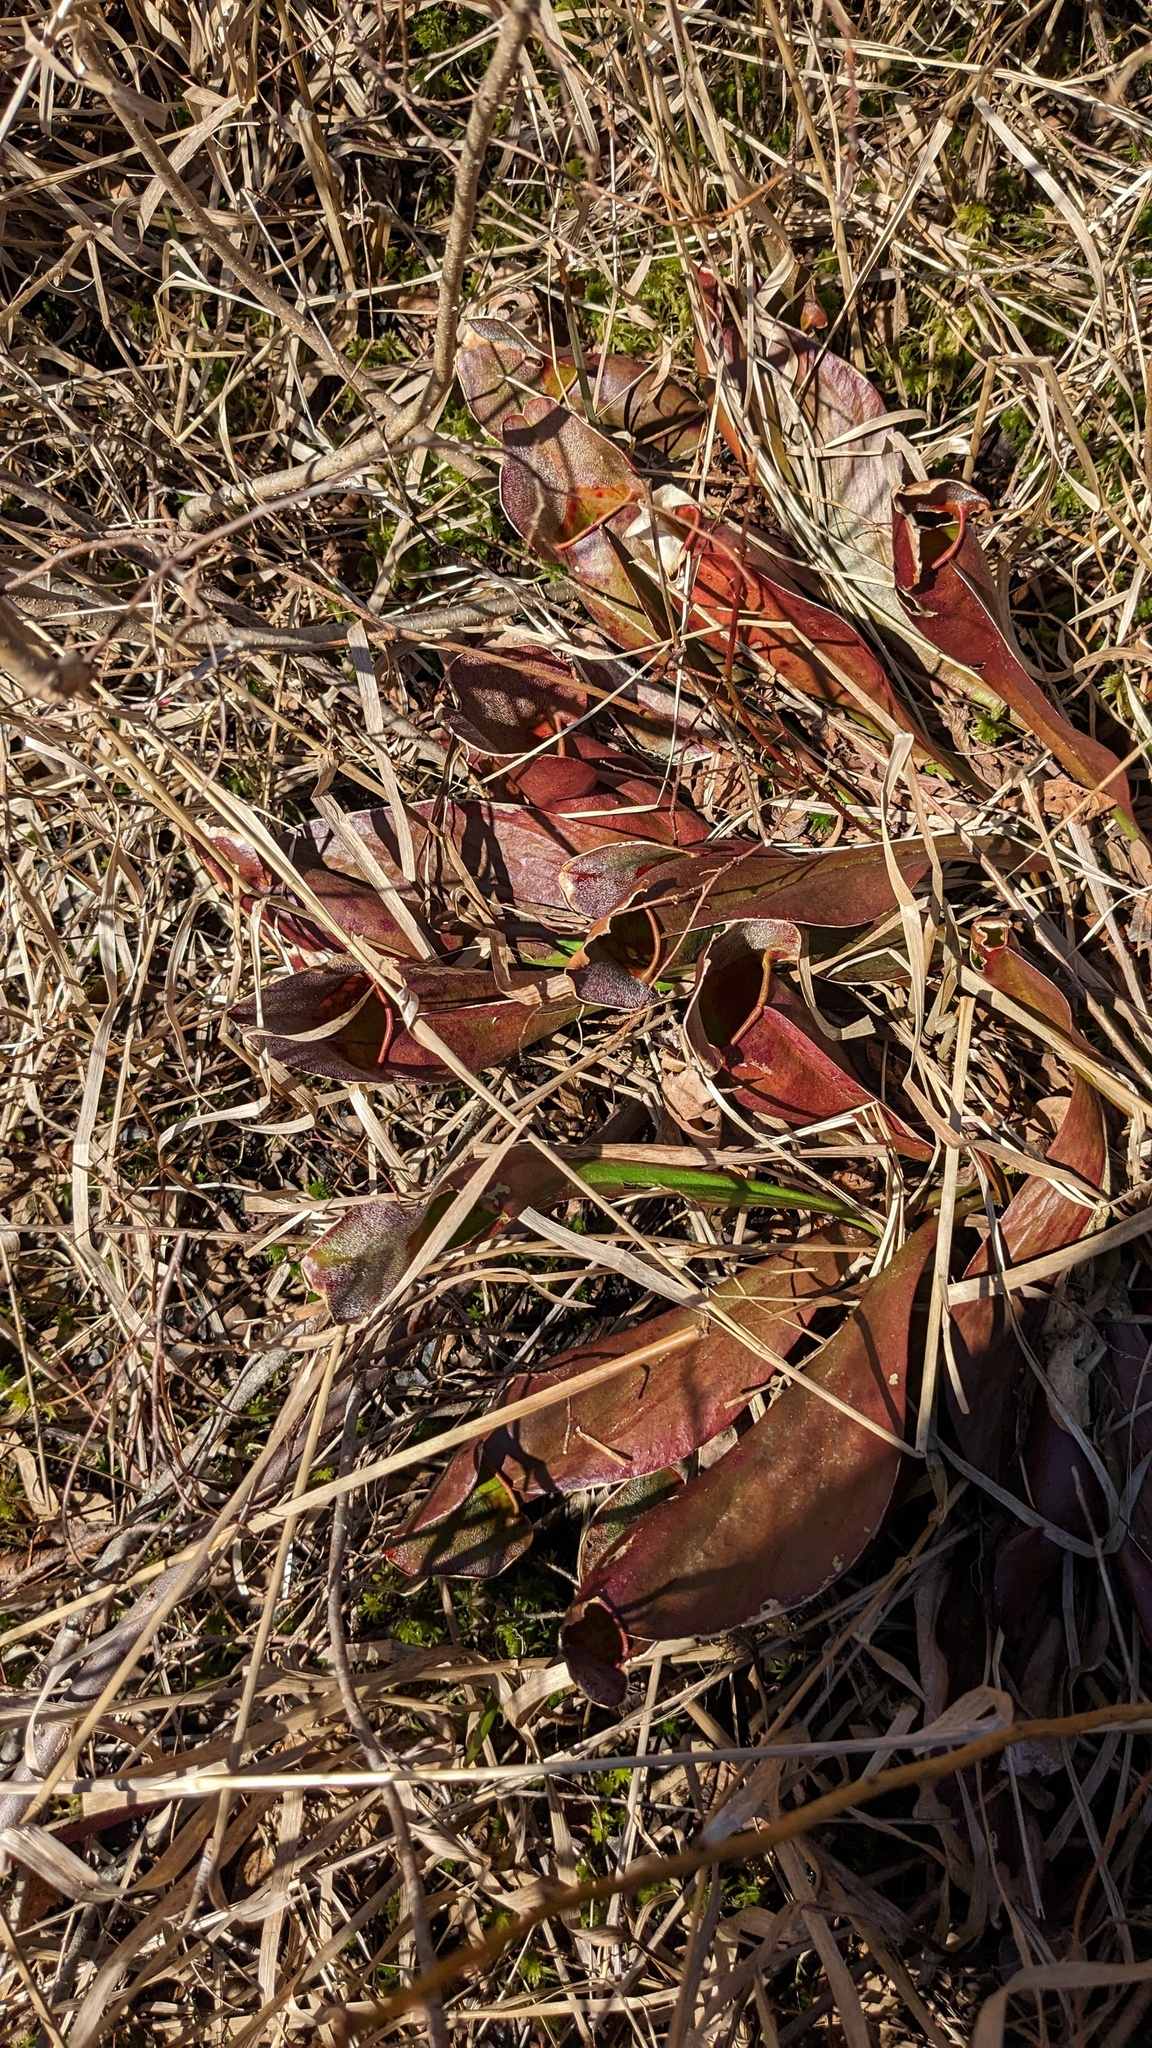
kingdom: Plantae
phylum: Tracheophyta
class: Magnoliopsida
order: Ericales
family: Sarraceniaceae
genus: Sarracenia
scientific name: Sarracenia purpurea
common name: Pitcherplant
